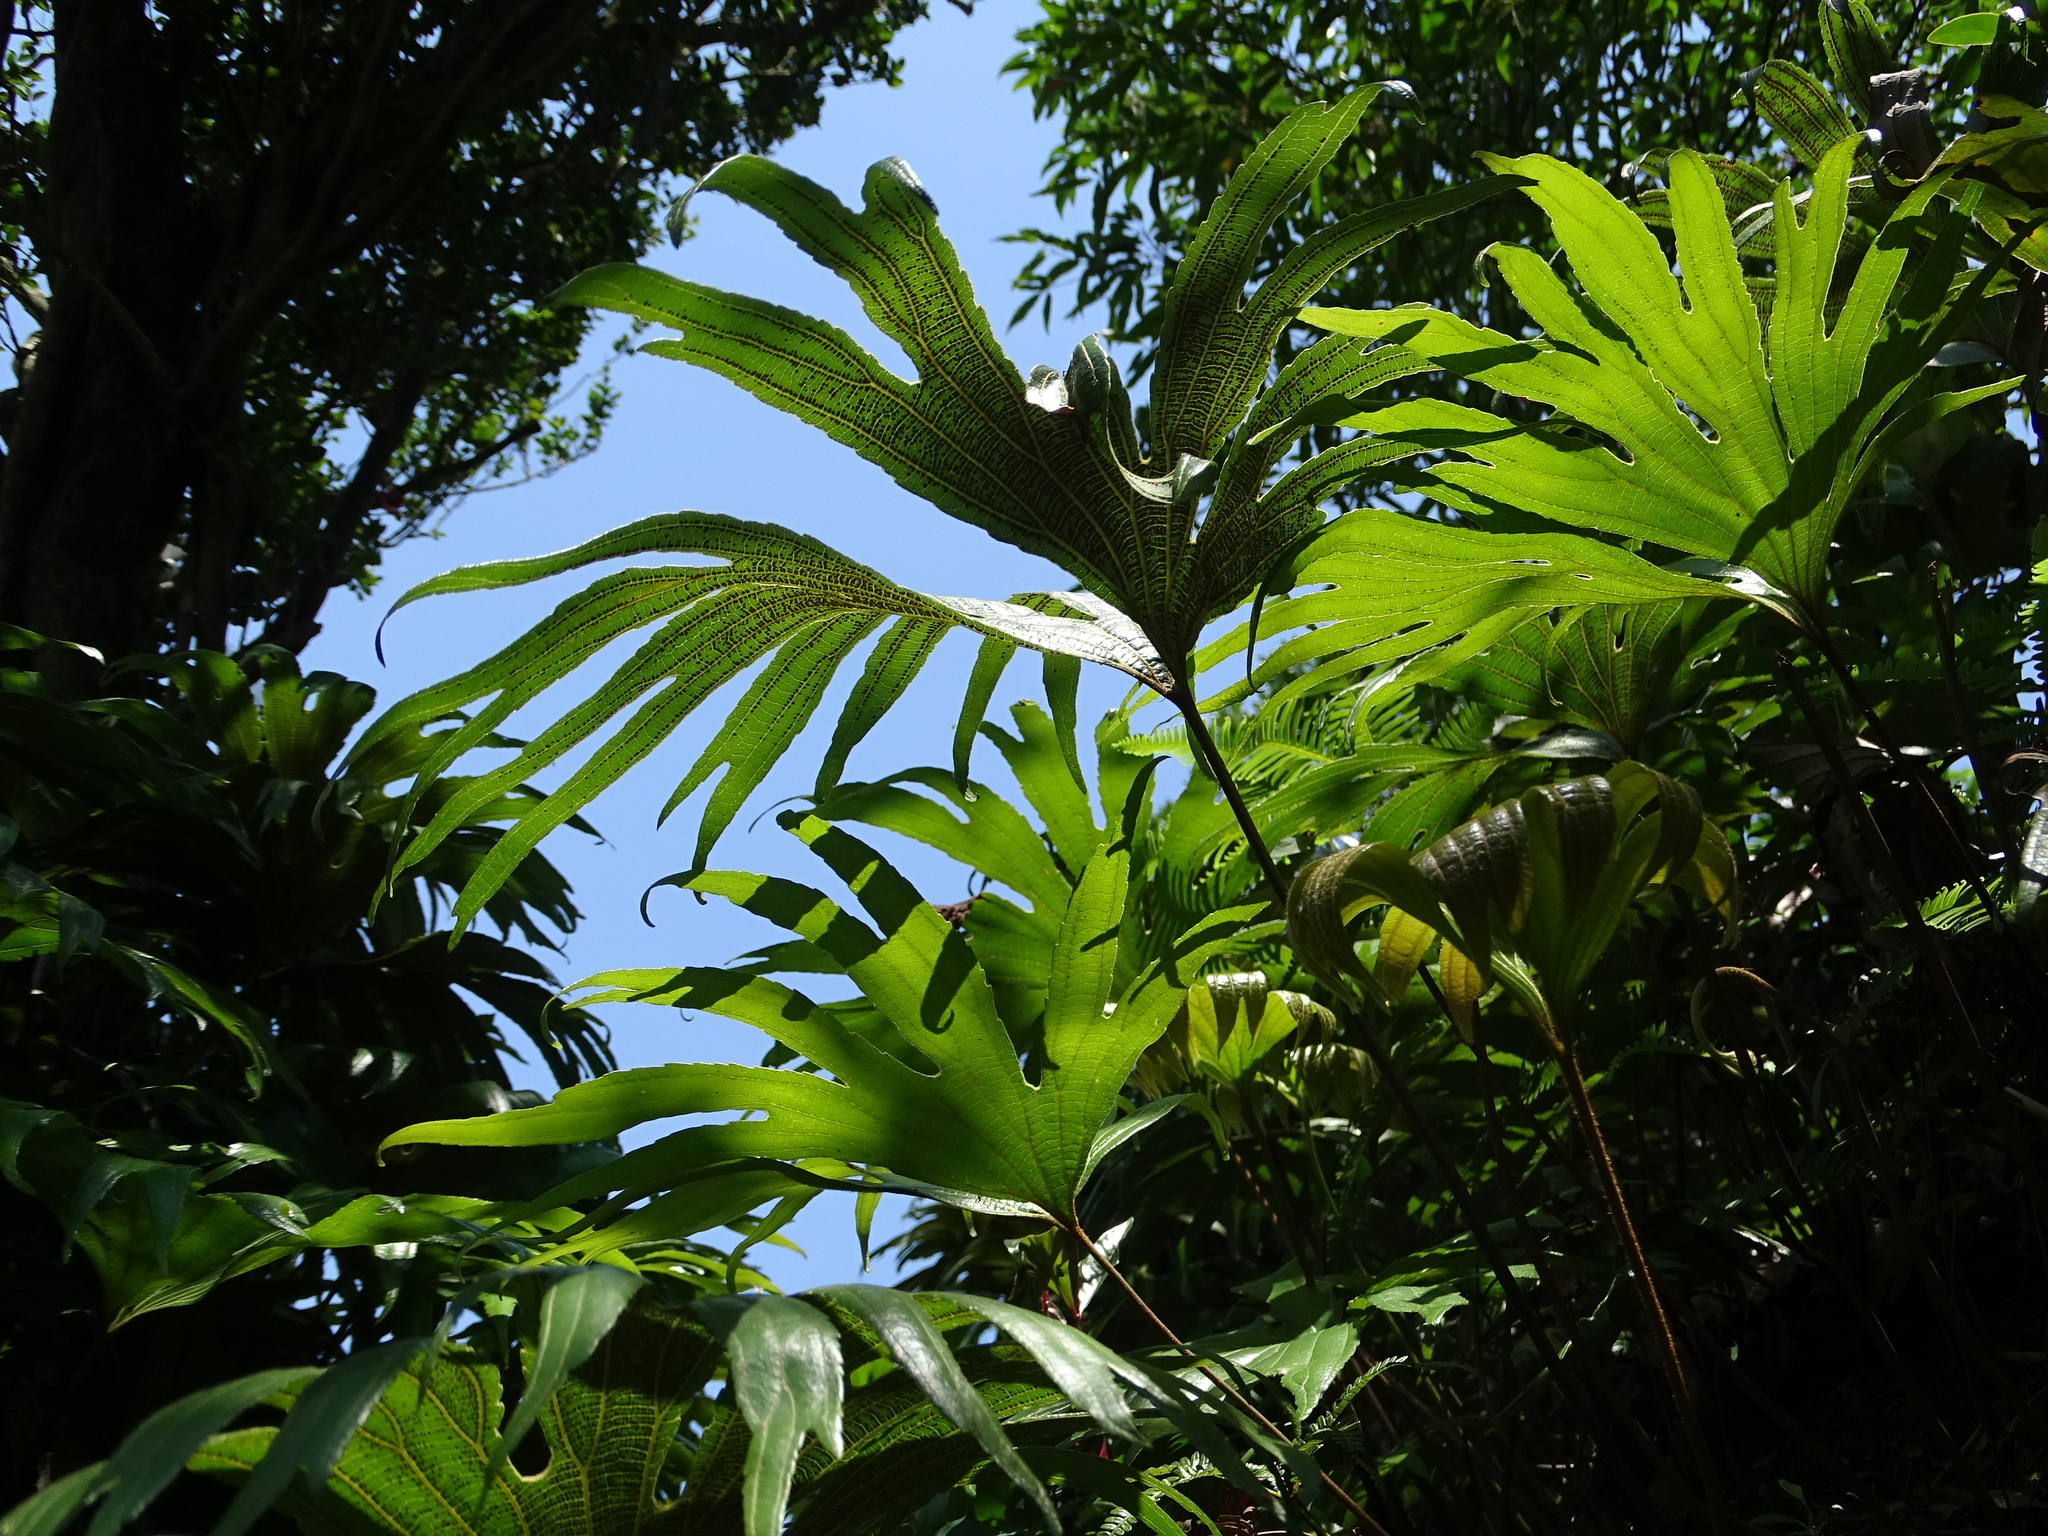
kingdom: Plantae
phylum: Tracheophyta
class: Polypodiopsida
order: Gleicheniales
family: Dipteridaceae
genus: Dipteris
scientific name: Dipteris conjugata
